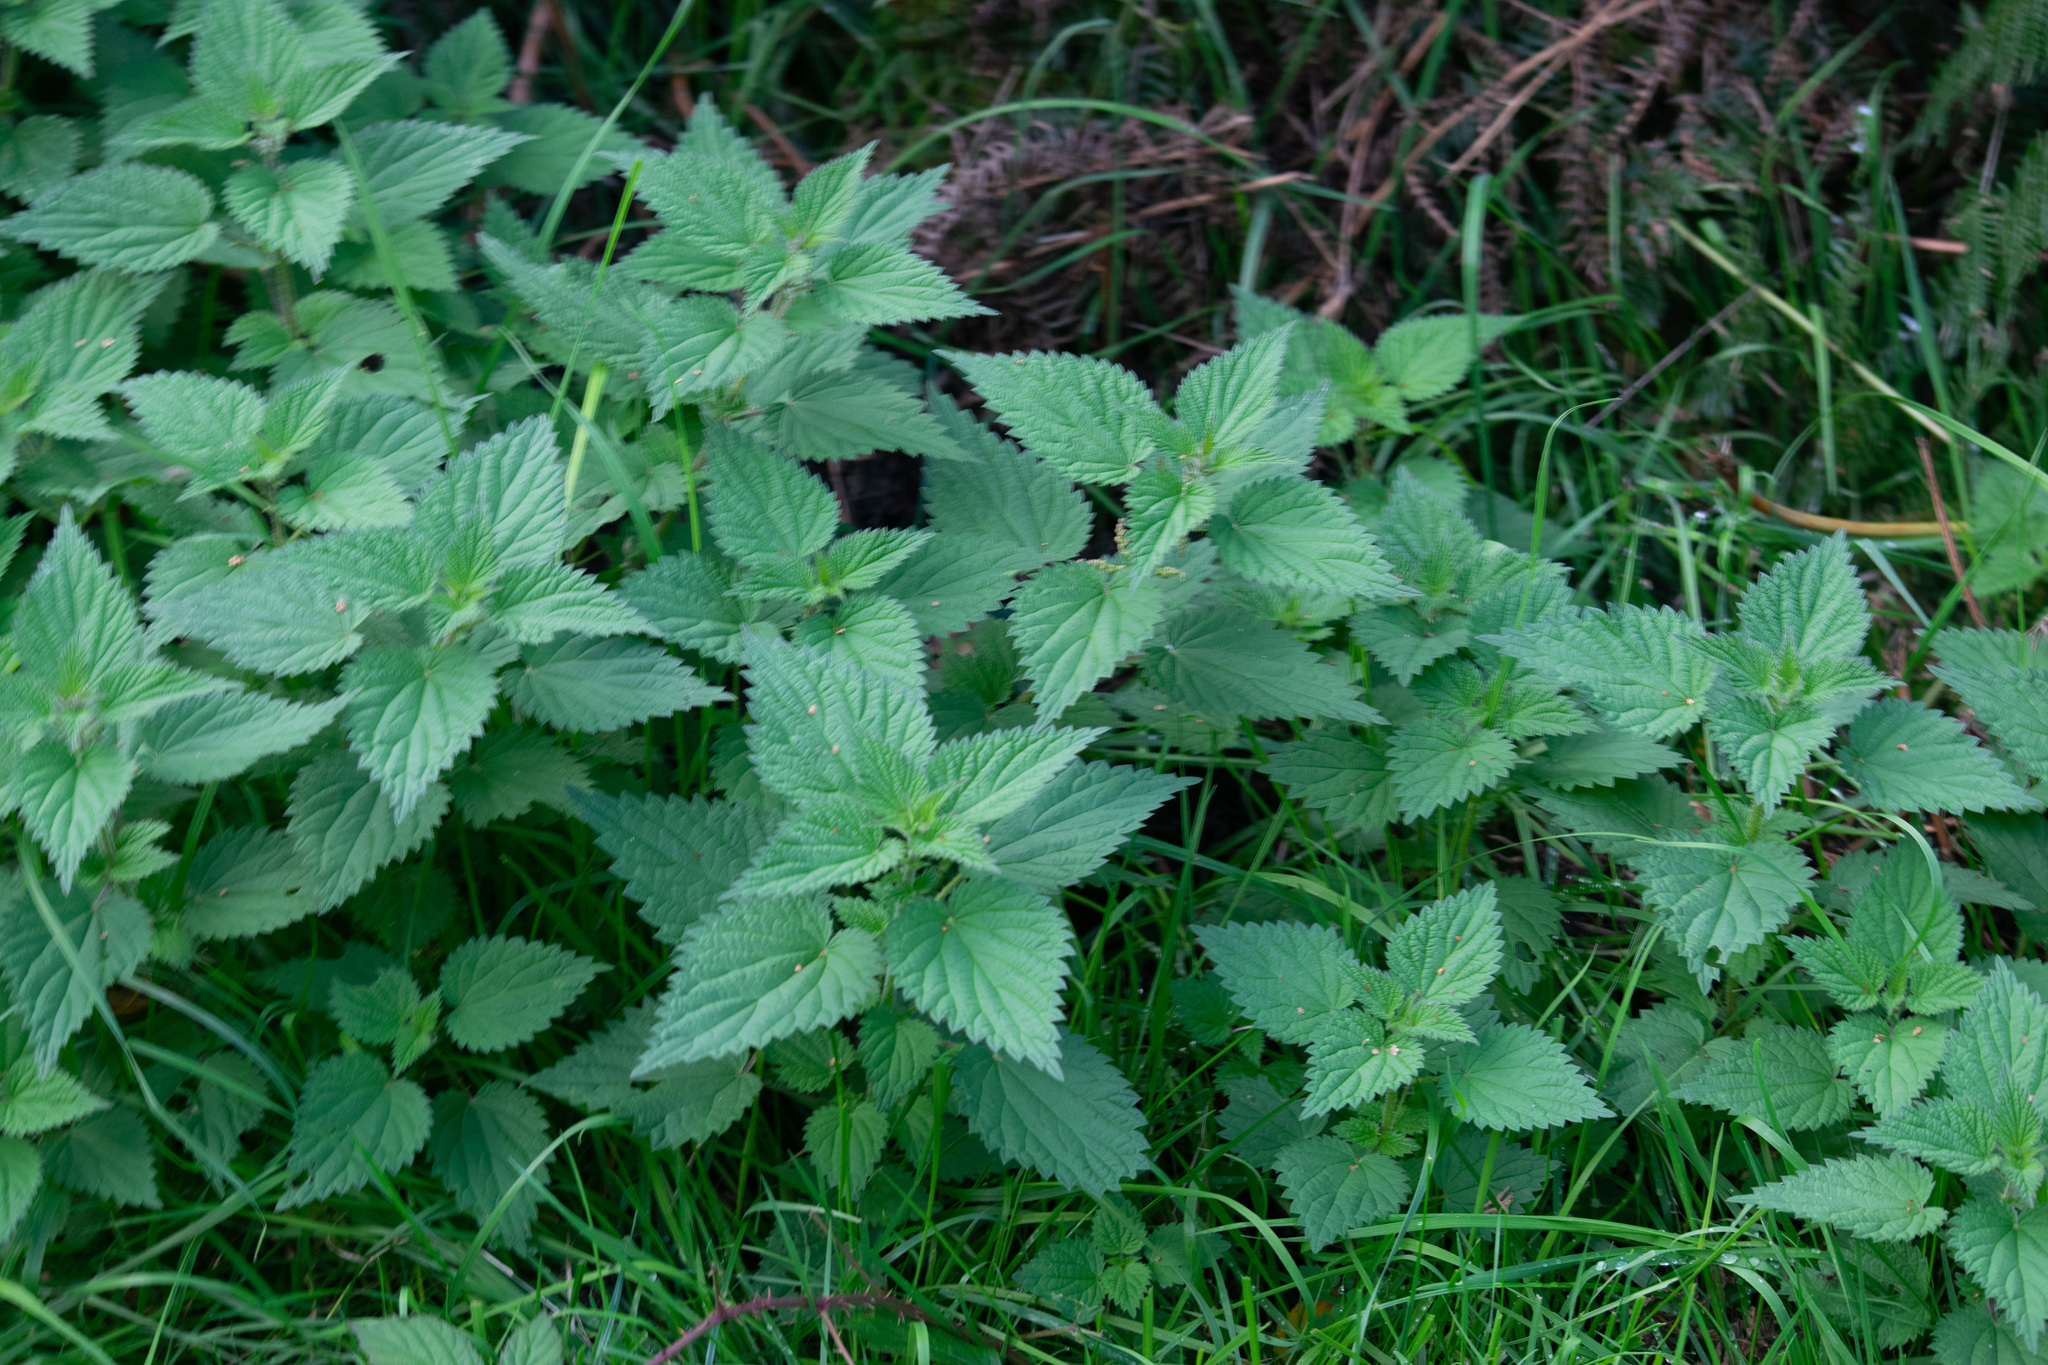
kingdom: Plantae
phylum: Tracheophyta
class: Magnoliopsida
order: Rosales
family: Urticaceae
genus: Urtica
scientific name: Urtica dioica
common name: Common nettle
